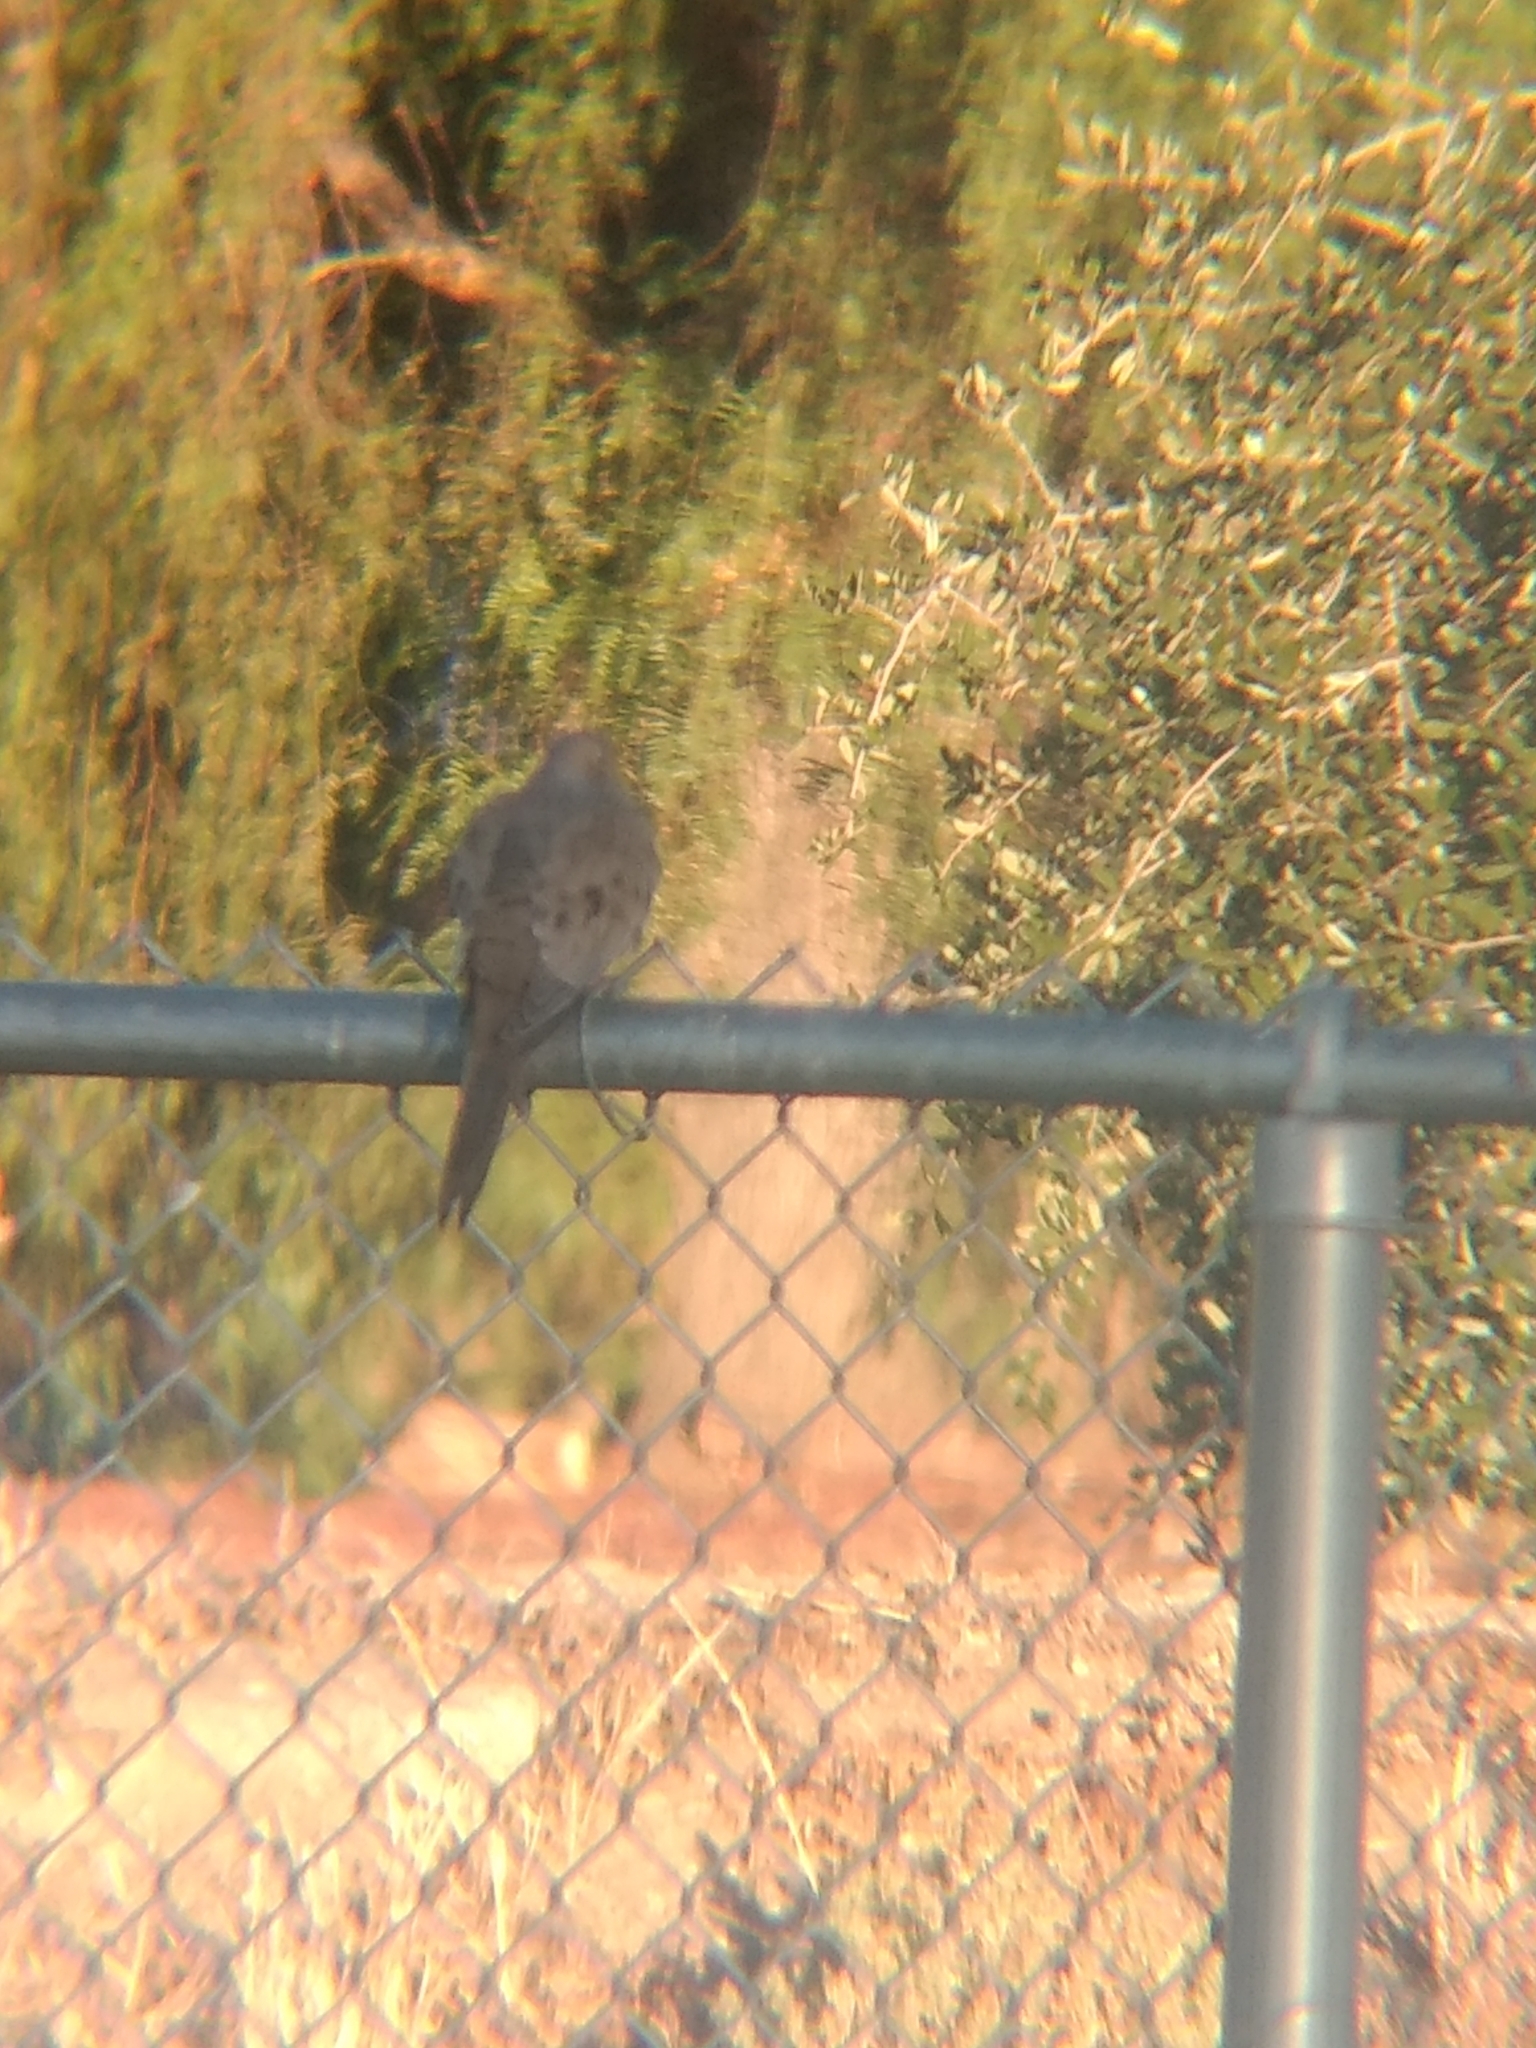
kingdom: Animalia
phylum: Chordata
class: Aves
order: Columbiformes
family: Columbidae
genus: Zenaida
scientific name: Zenaida macroura
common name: Mourning dove
